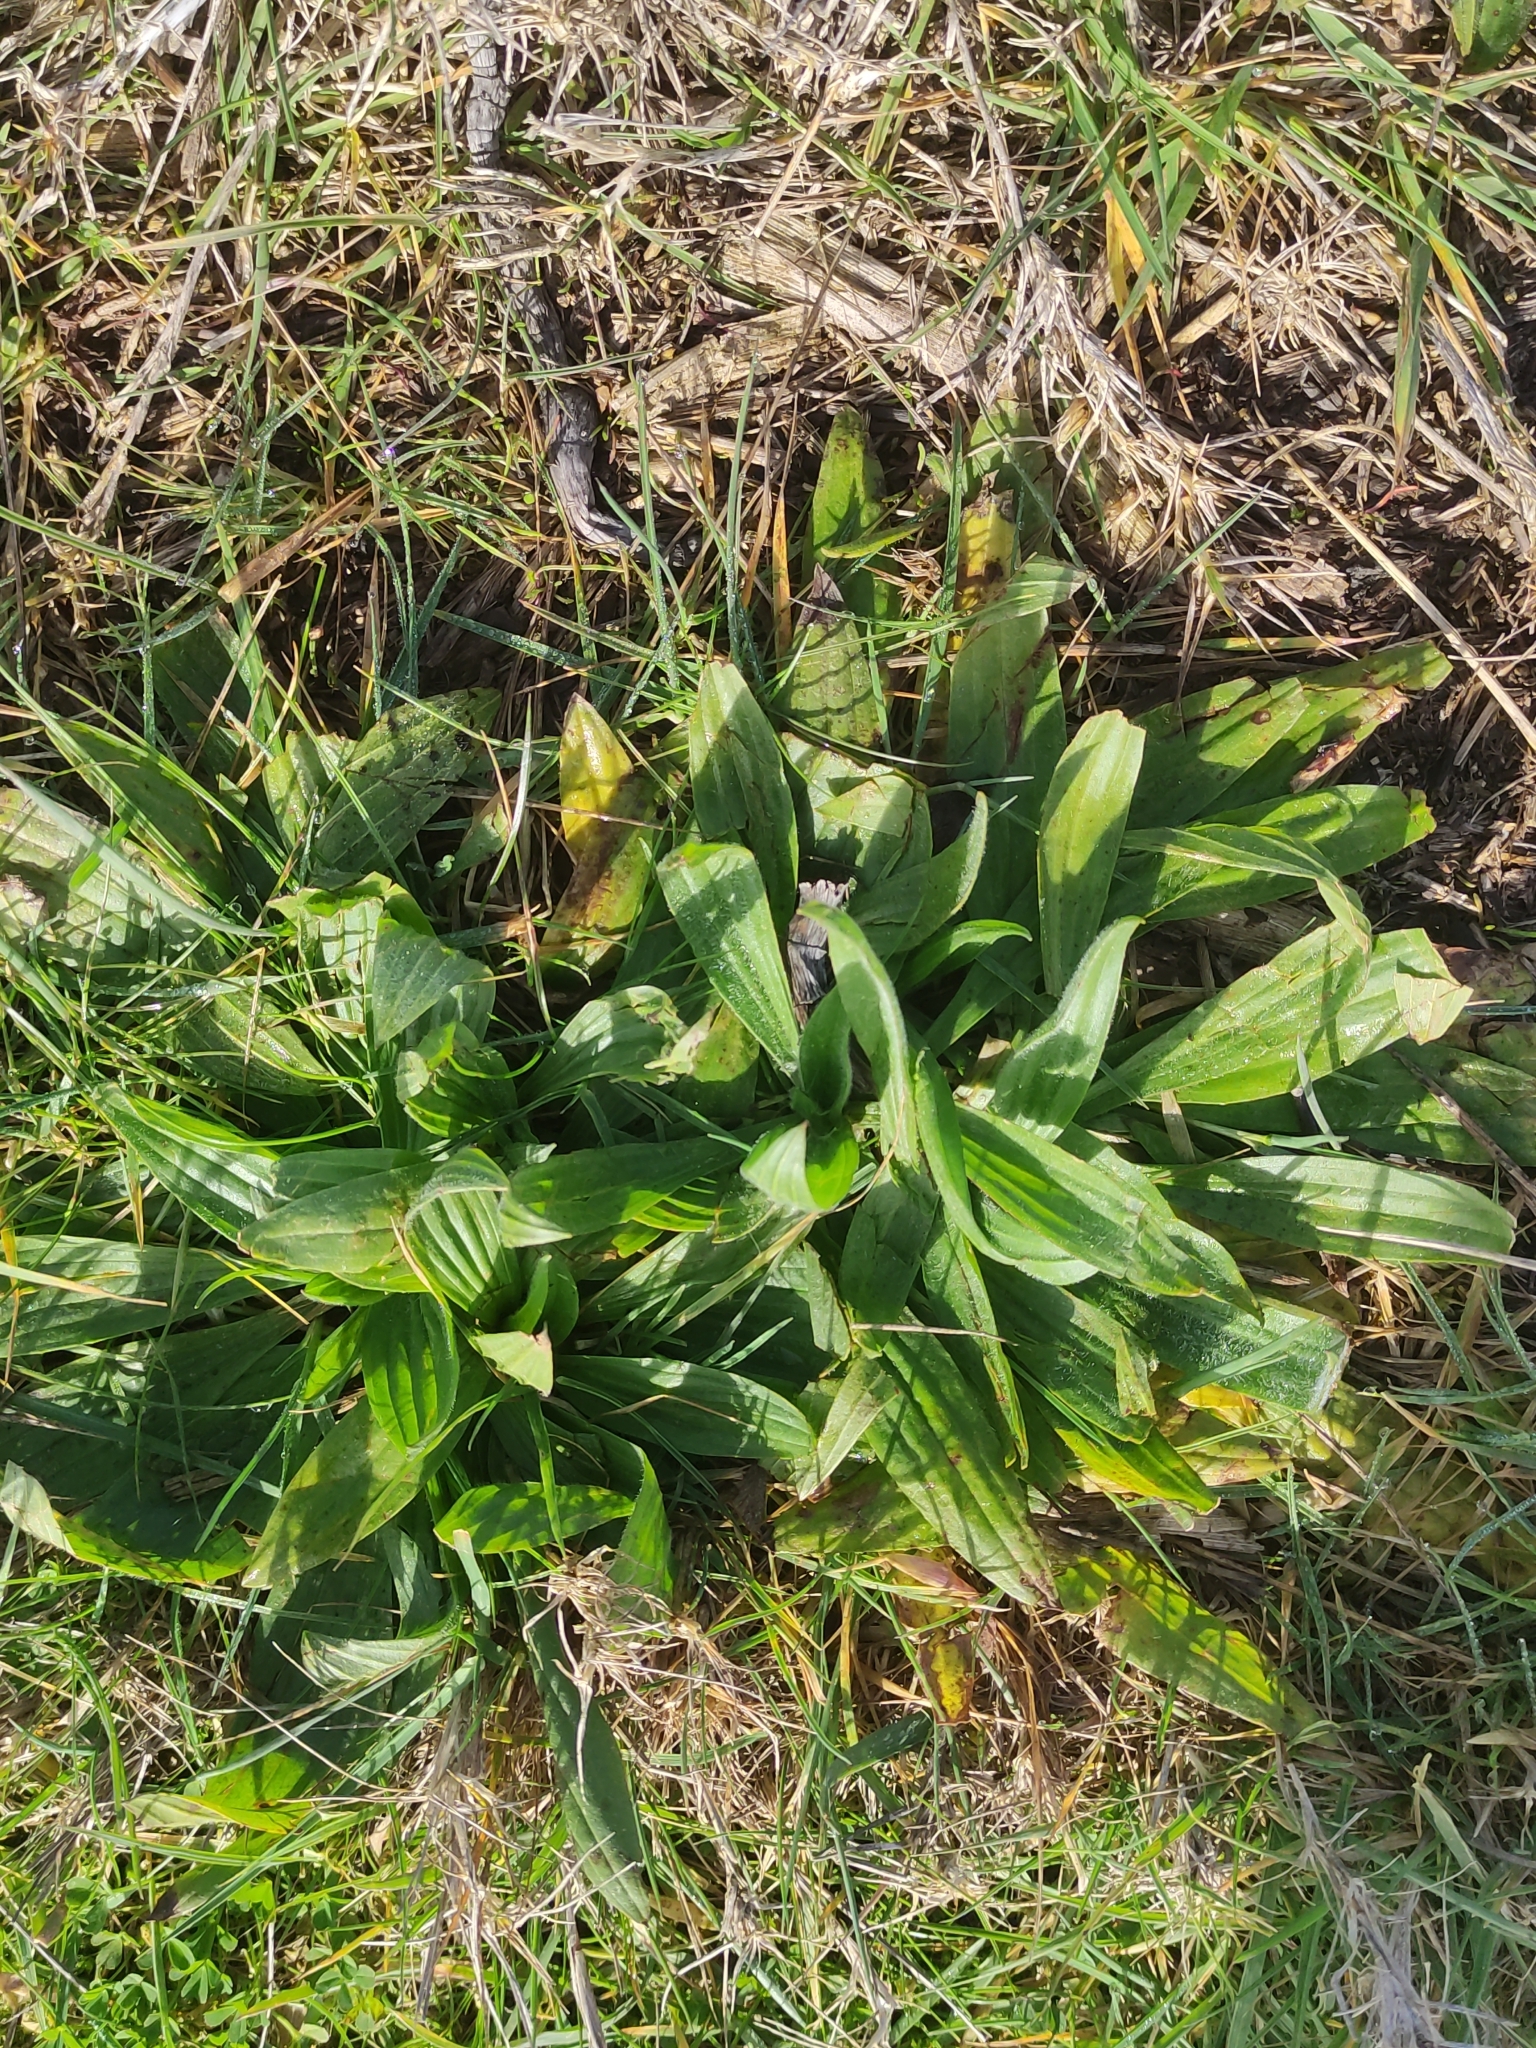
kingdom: Plantae
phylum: Tracheophyta
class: Magnoliopsida
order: Lamiales
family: Plantaginaceae
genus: Plantago
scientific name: Plantago lanceolata
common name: Ribwort plantain
